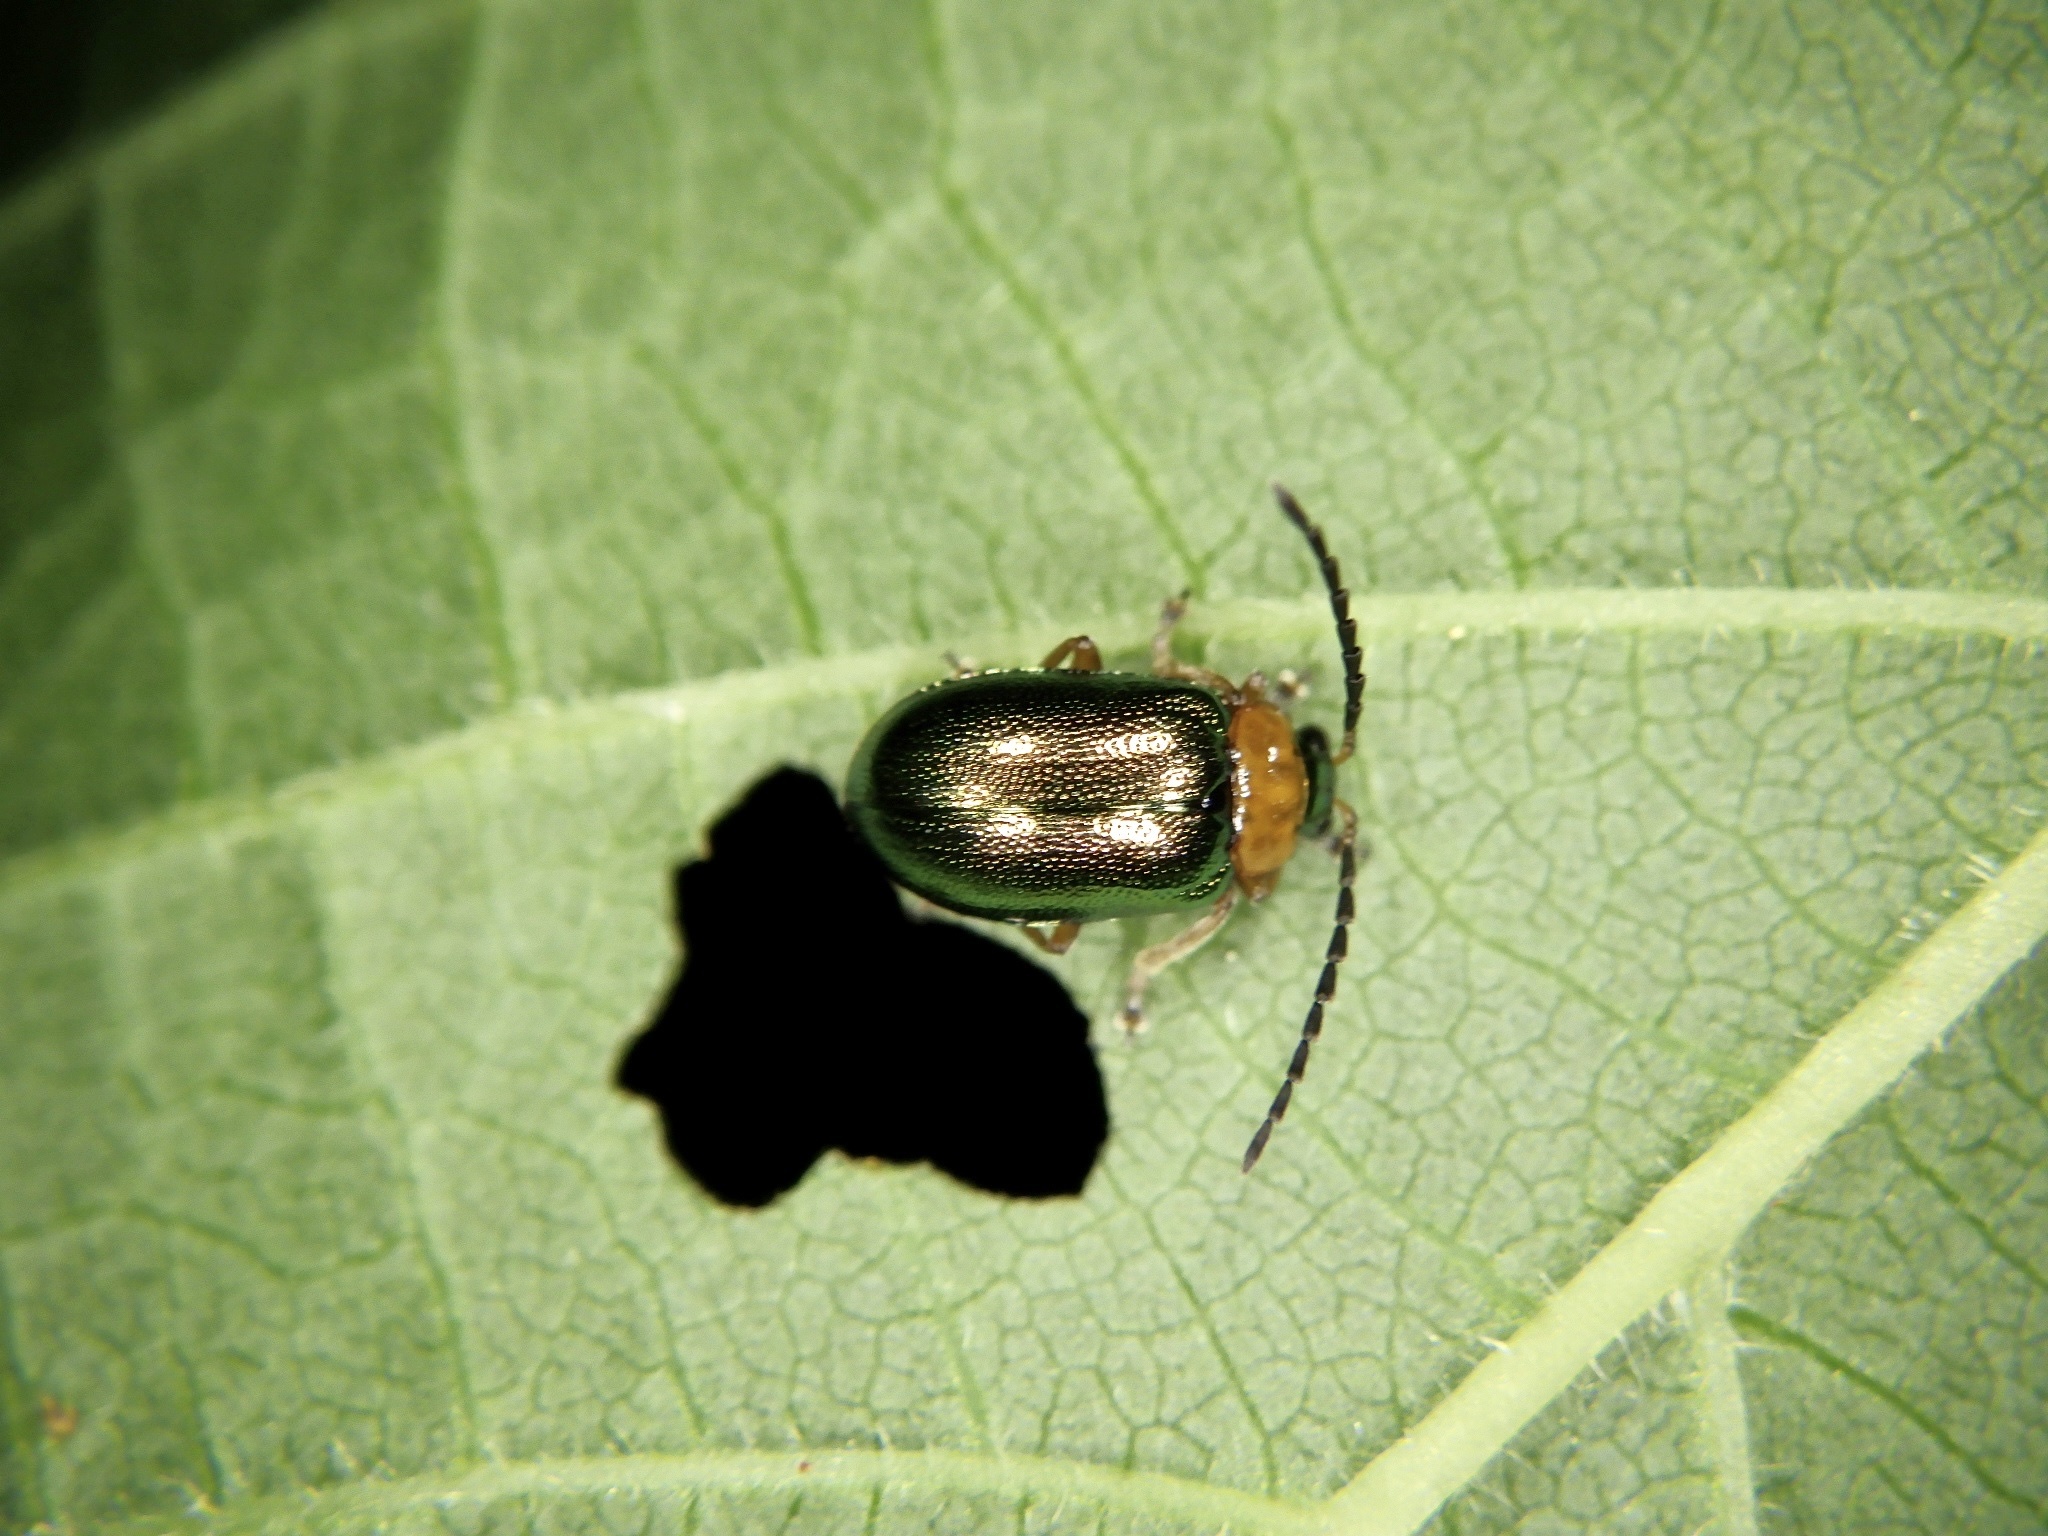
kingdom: Animalia
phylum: Arthropoda
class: Insecta
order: Coleoptera
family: Chrysomelidae
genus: Agelasa
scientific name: Agelasa nigriceps
